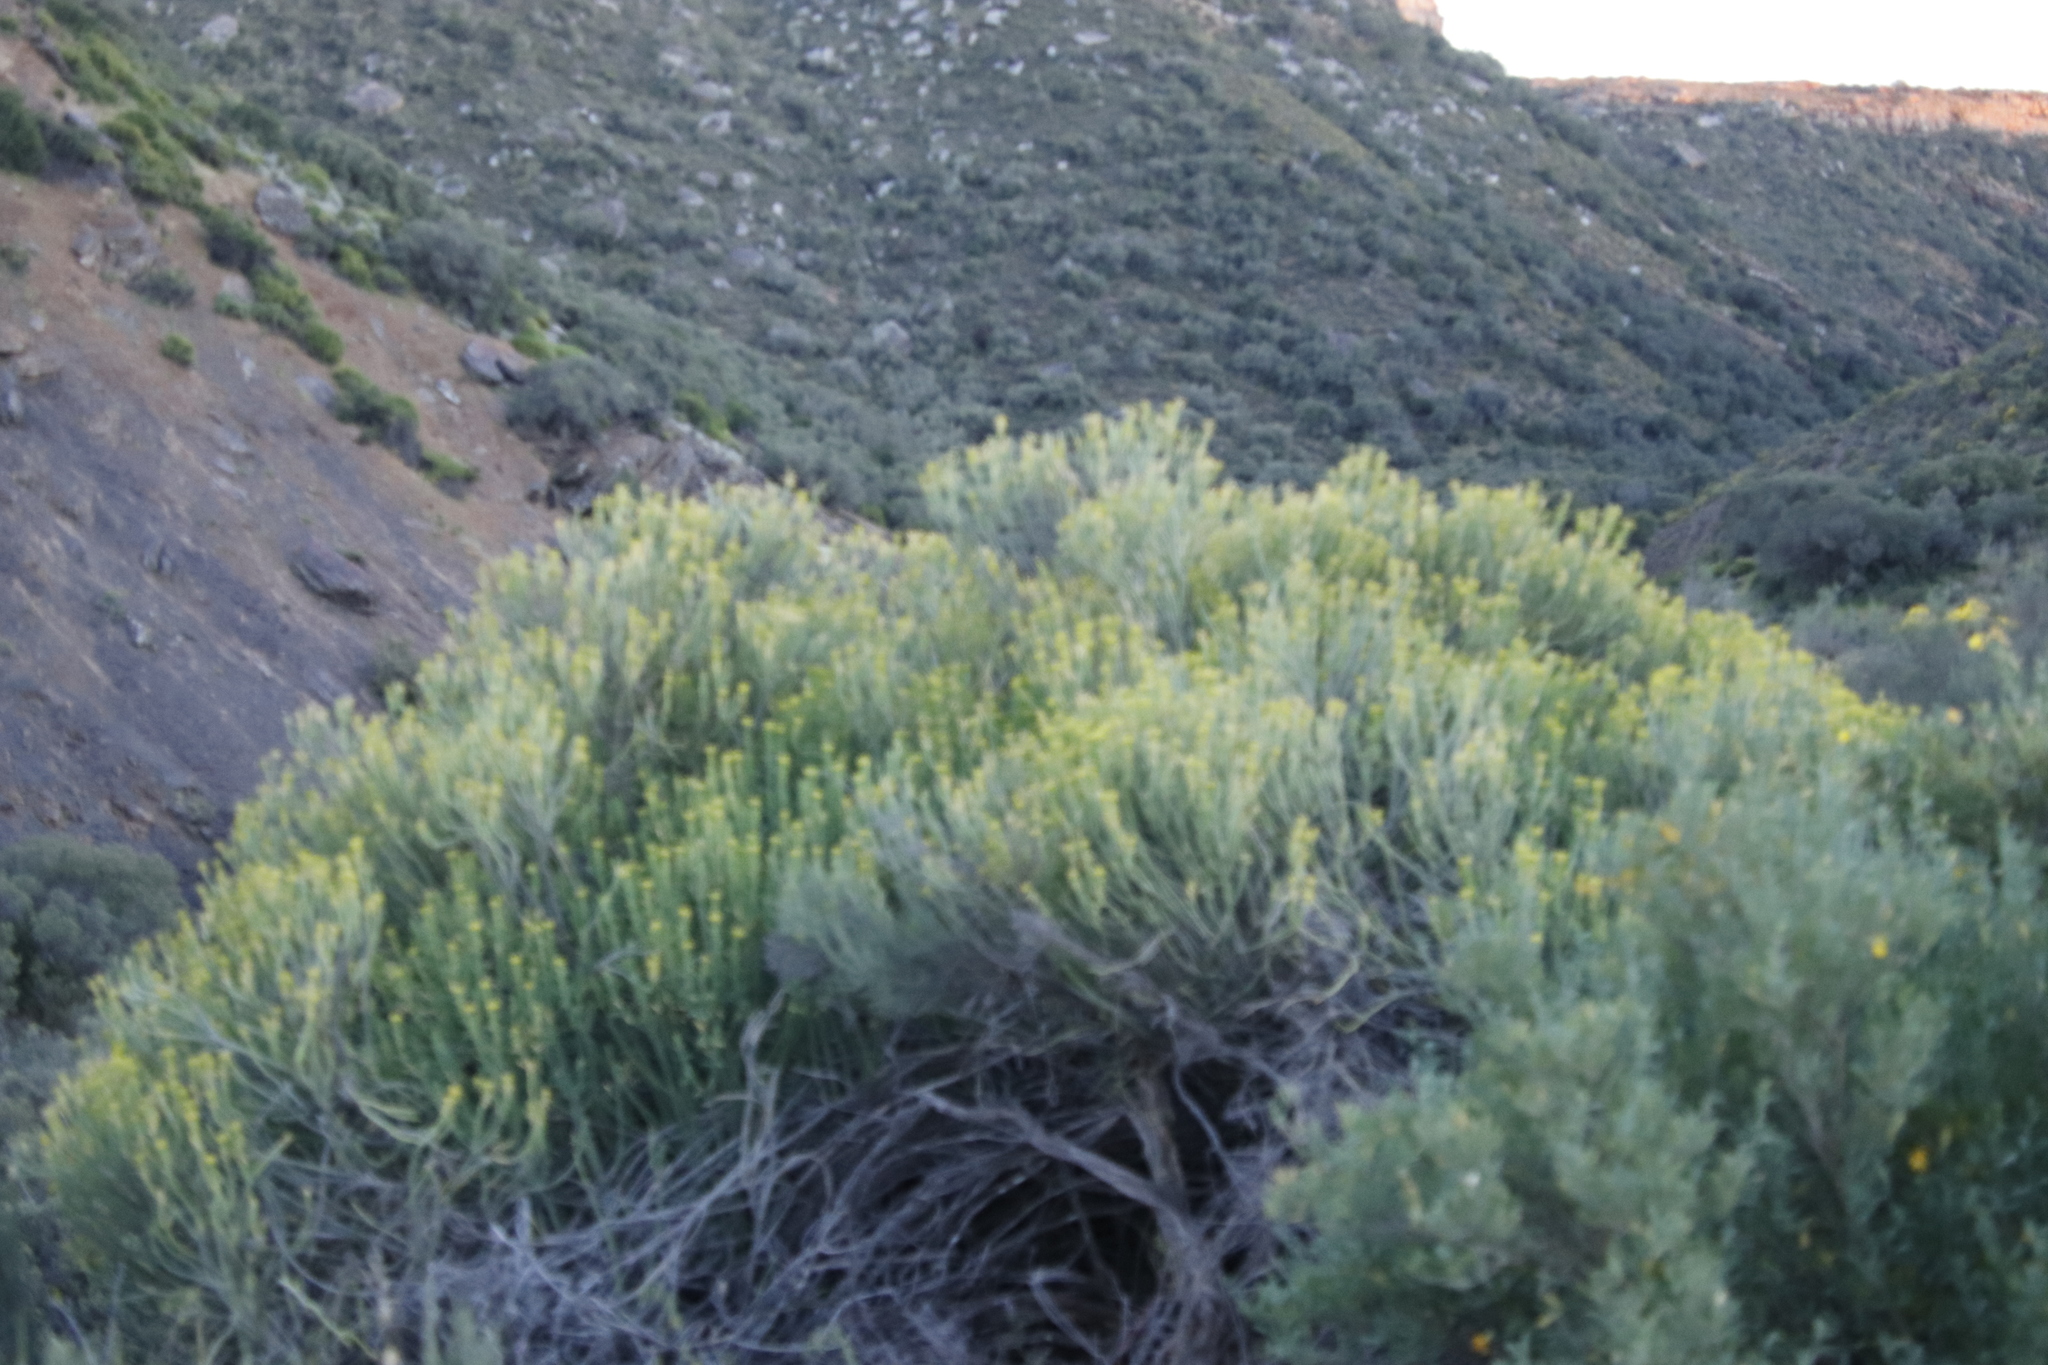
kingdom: Plantae
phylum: Tracheophyta
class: Magnoliopsida
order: Malpighiales
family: Euphorbiaceae
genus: Euphorbia
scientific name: Euphorbia mauritanica
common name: Jackal's-food
